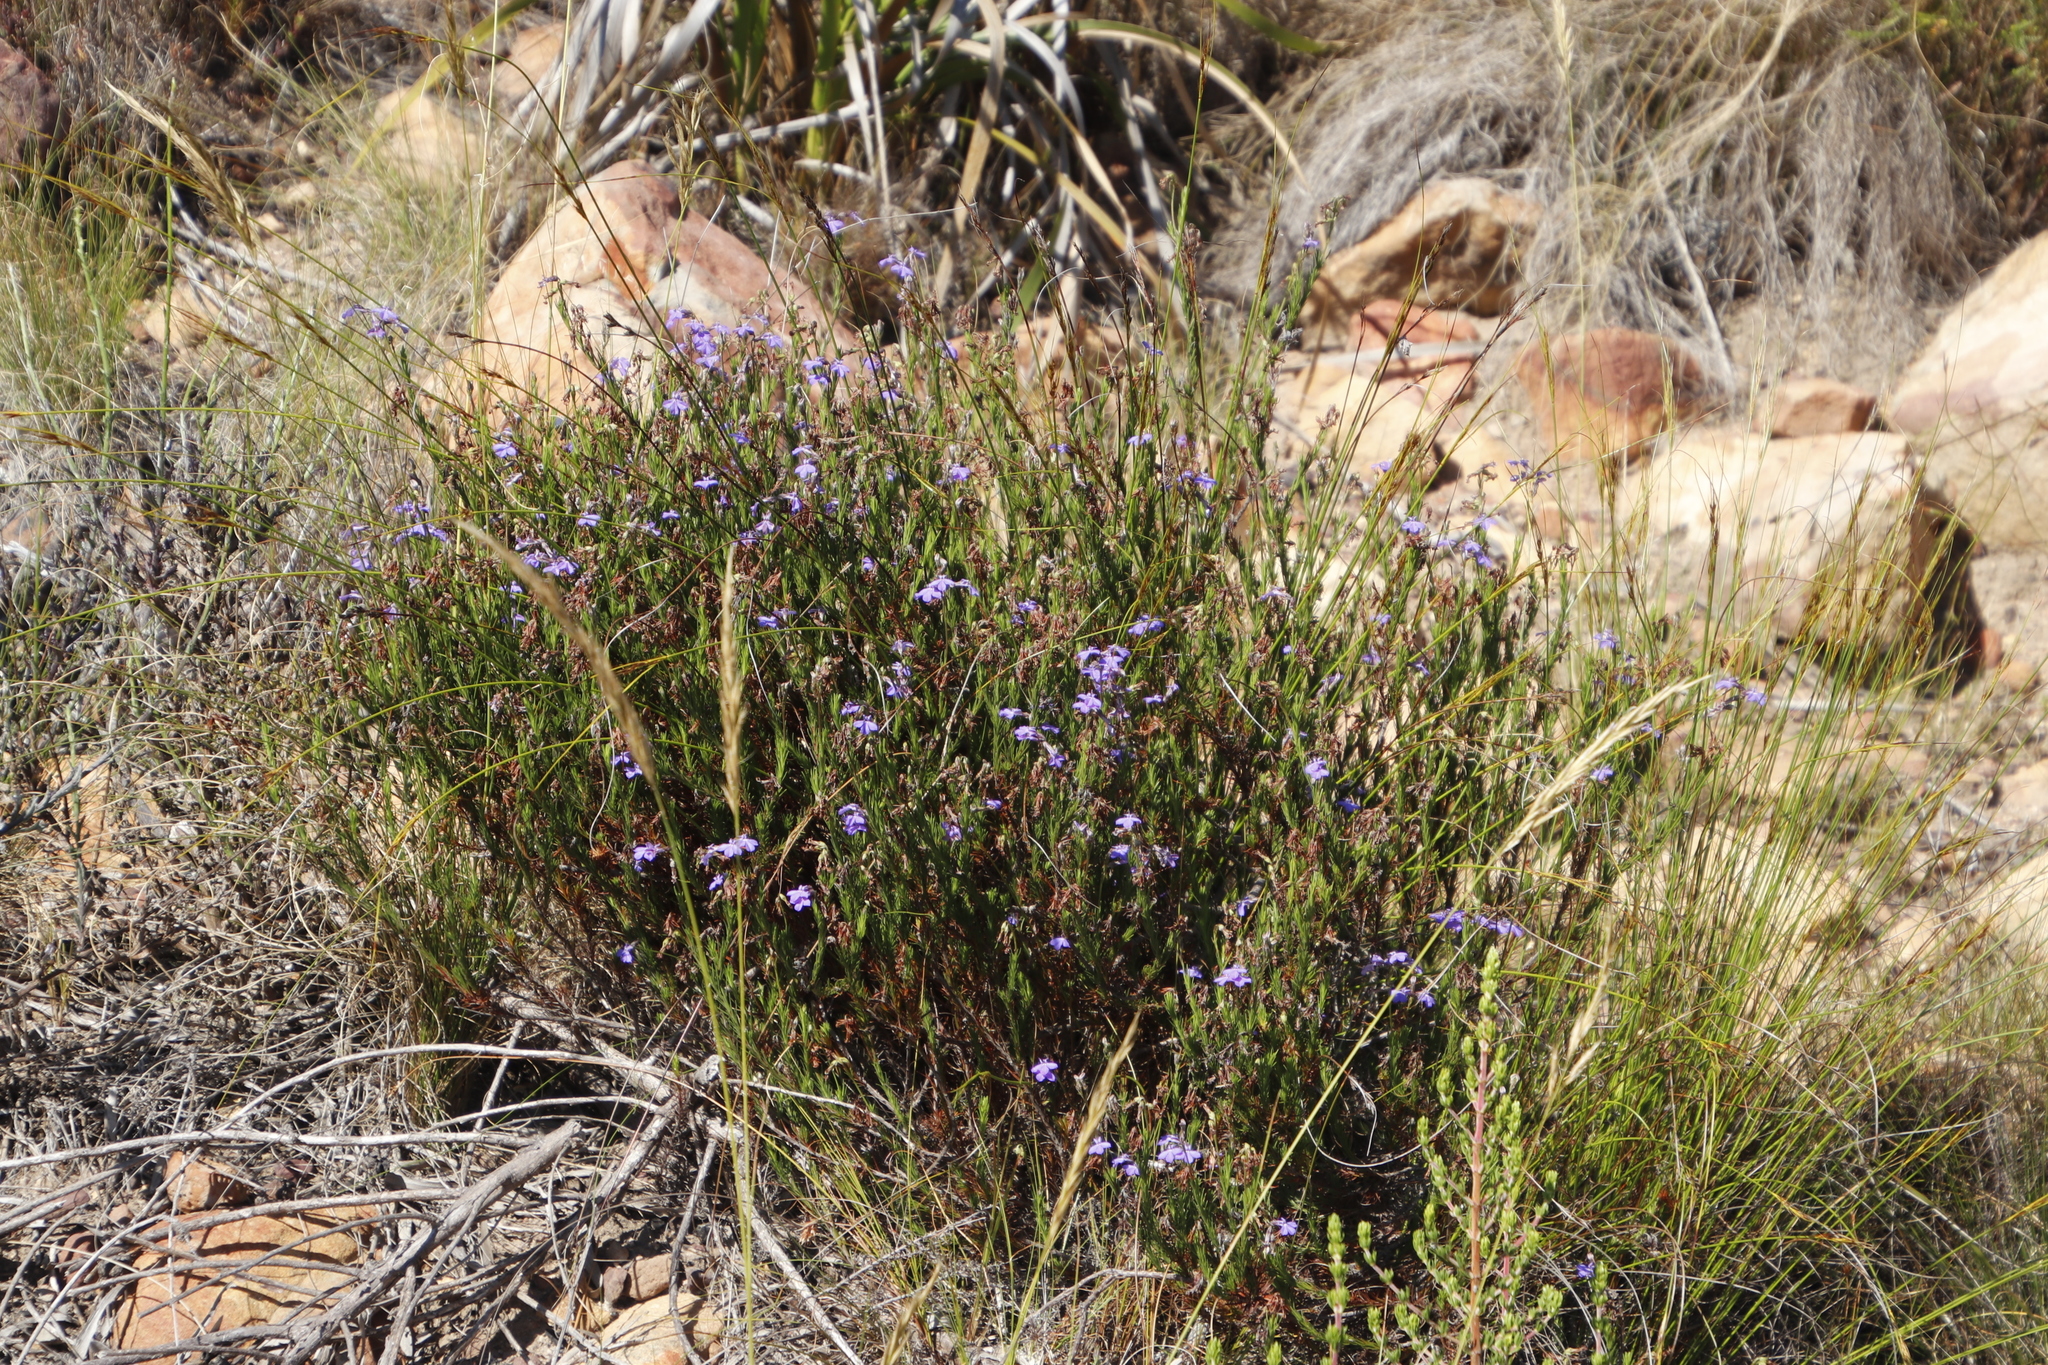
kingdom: Plantae
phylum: Tracheophyta
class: Magnoliopsida
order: Asterales
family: Campanulaceae
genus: Lobelia
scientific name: Lobelia pinifolia
